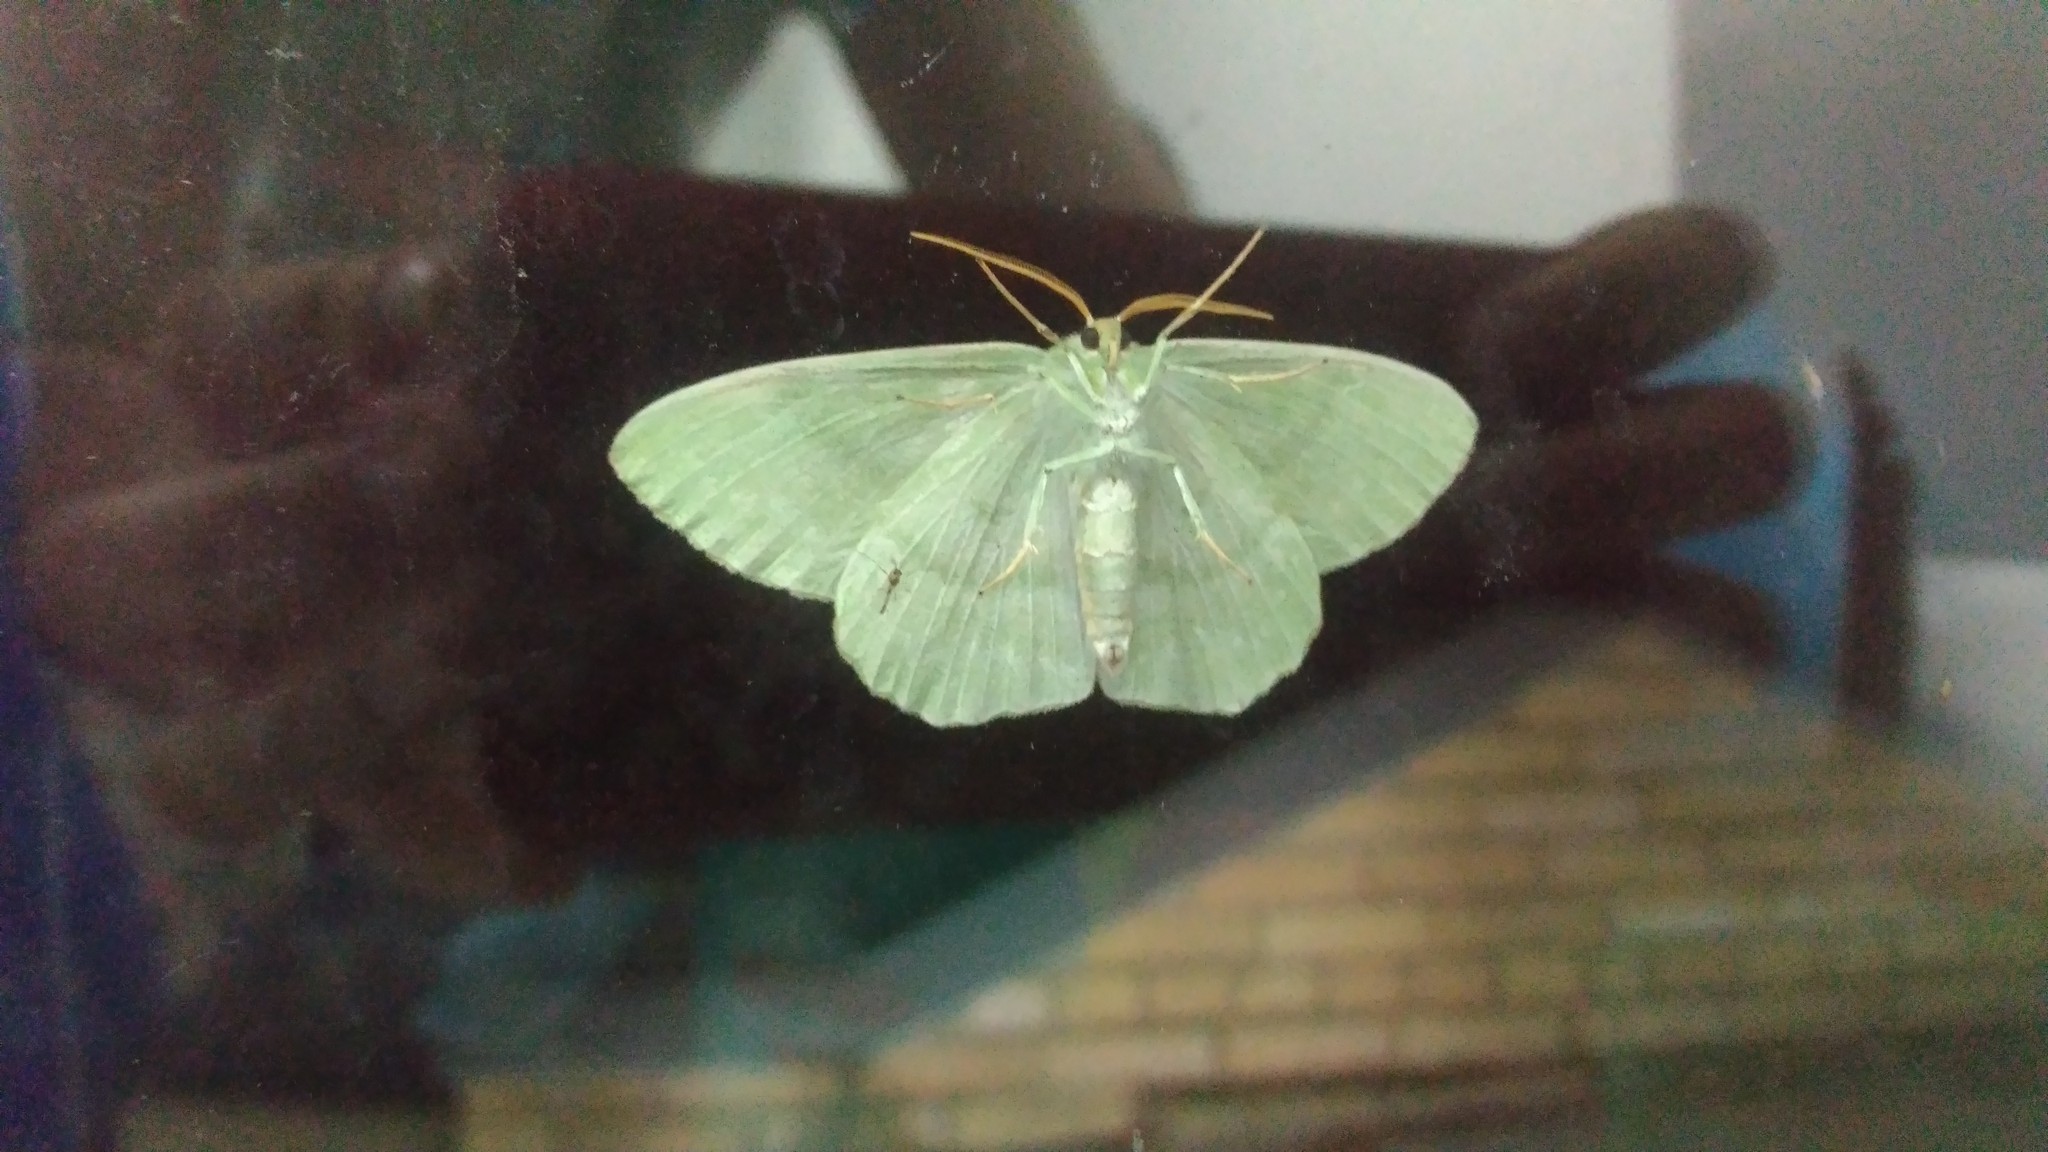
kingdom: Animalia
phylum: Arthropoda
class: Insecta
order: Lepidoptera
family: Geometridae
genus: Geometra
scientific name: Geometra papilionaria
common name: Large emerald
